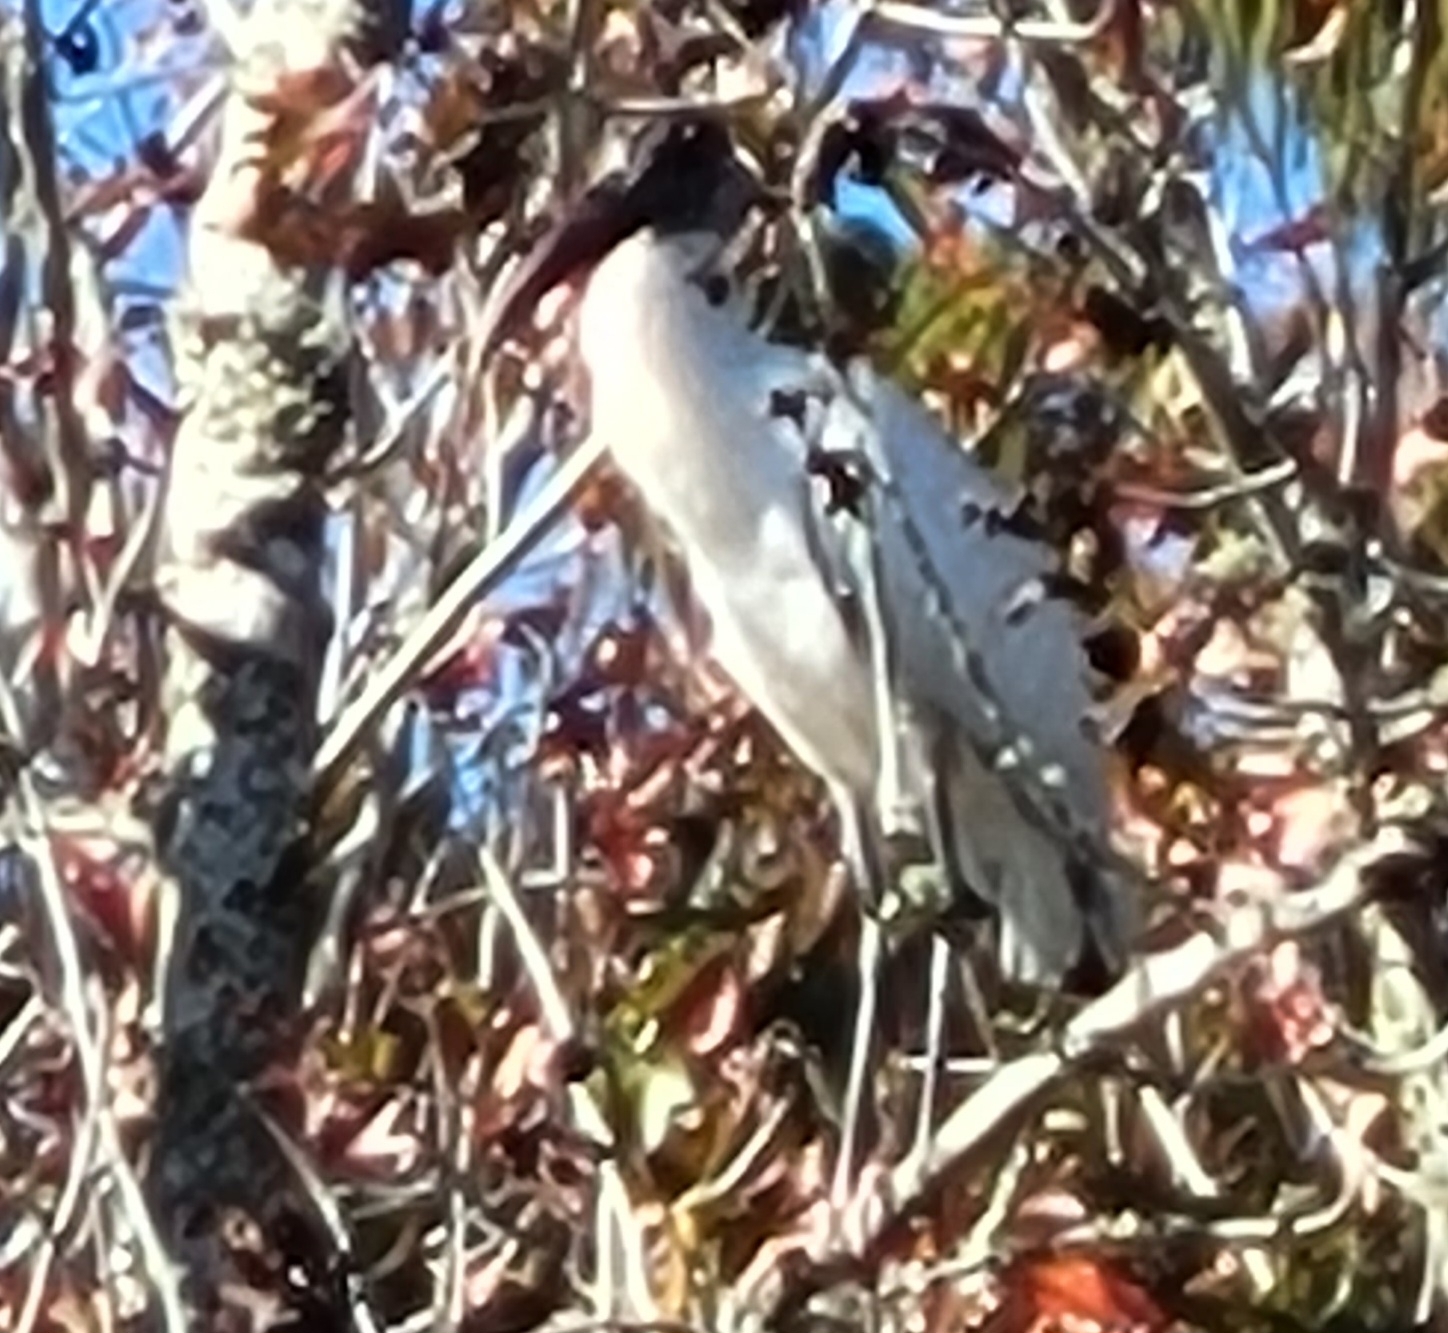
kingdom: Animalia
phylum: Chordata
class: Aves
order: Ciconiiformes
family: Ciconiidae
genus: Mycteria
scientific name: Mycteria americana
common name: Wood stork
